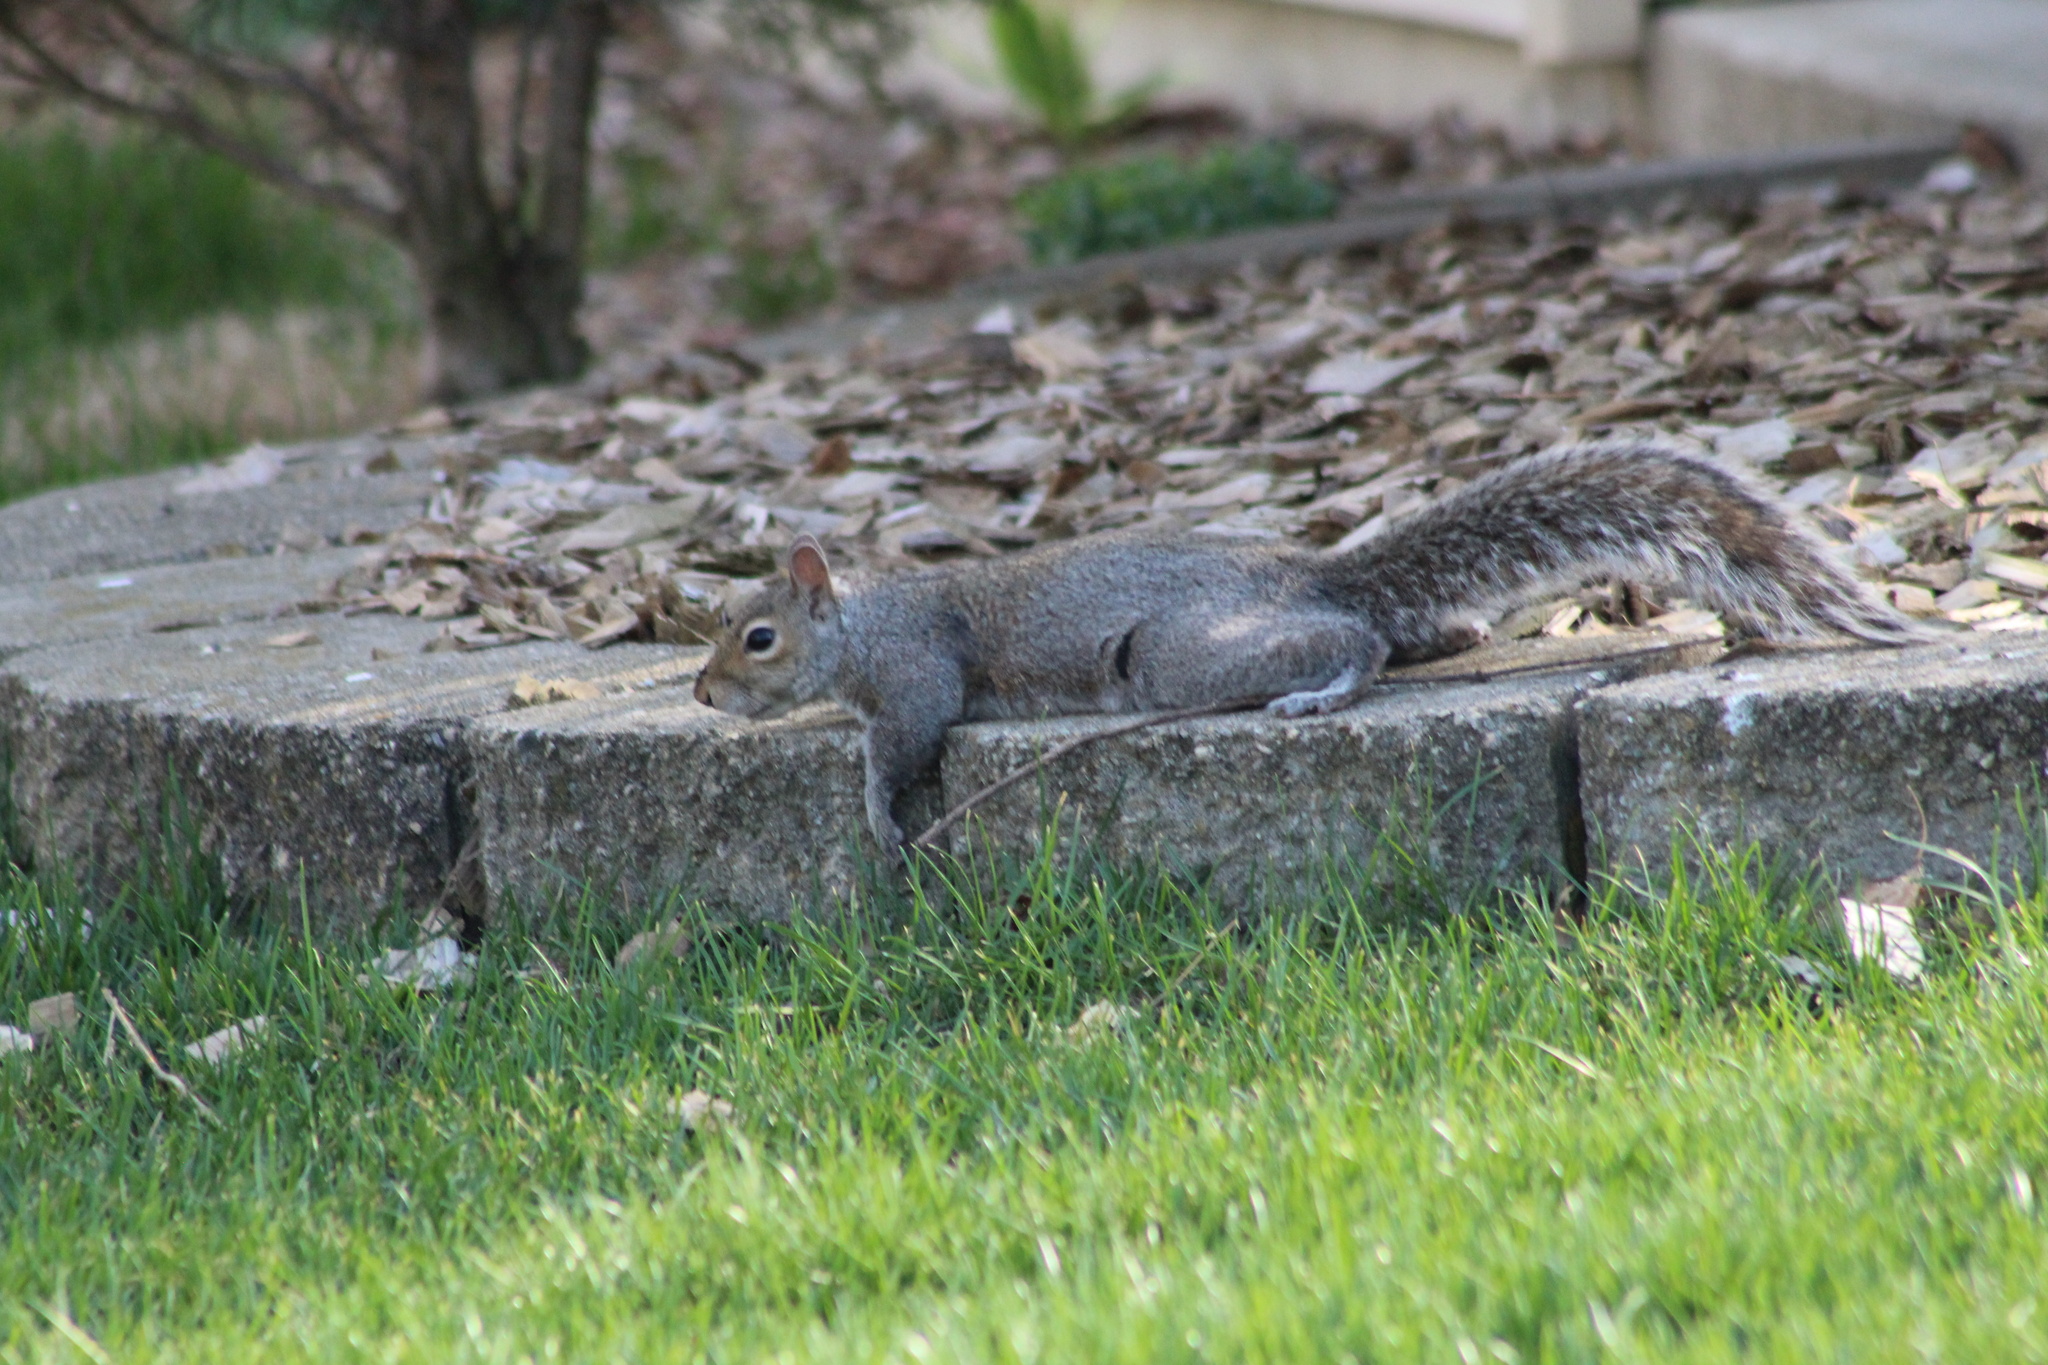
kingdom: Animalia
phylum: Chordata
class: Mammalia
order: Rodentia
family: Sciuridae
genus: Sciurus
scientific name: Sciurus carolinensis
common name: Eastern gray squirrel
